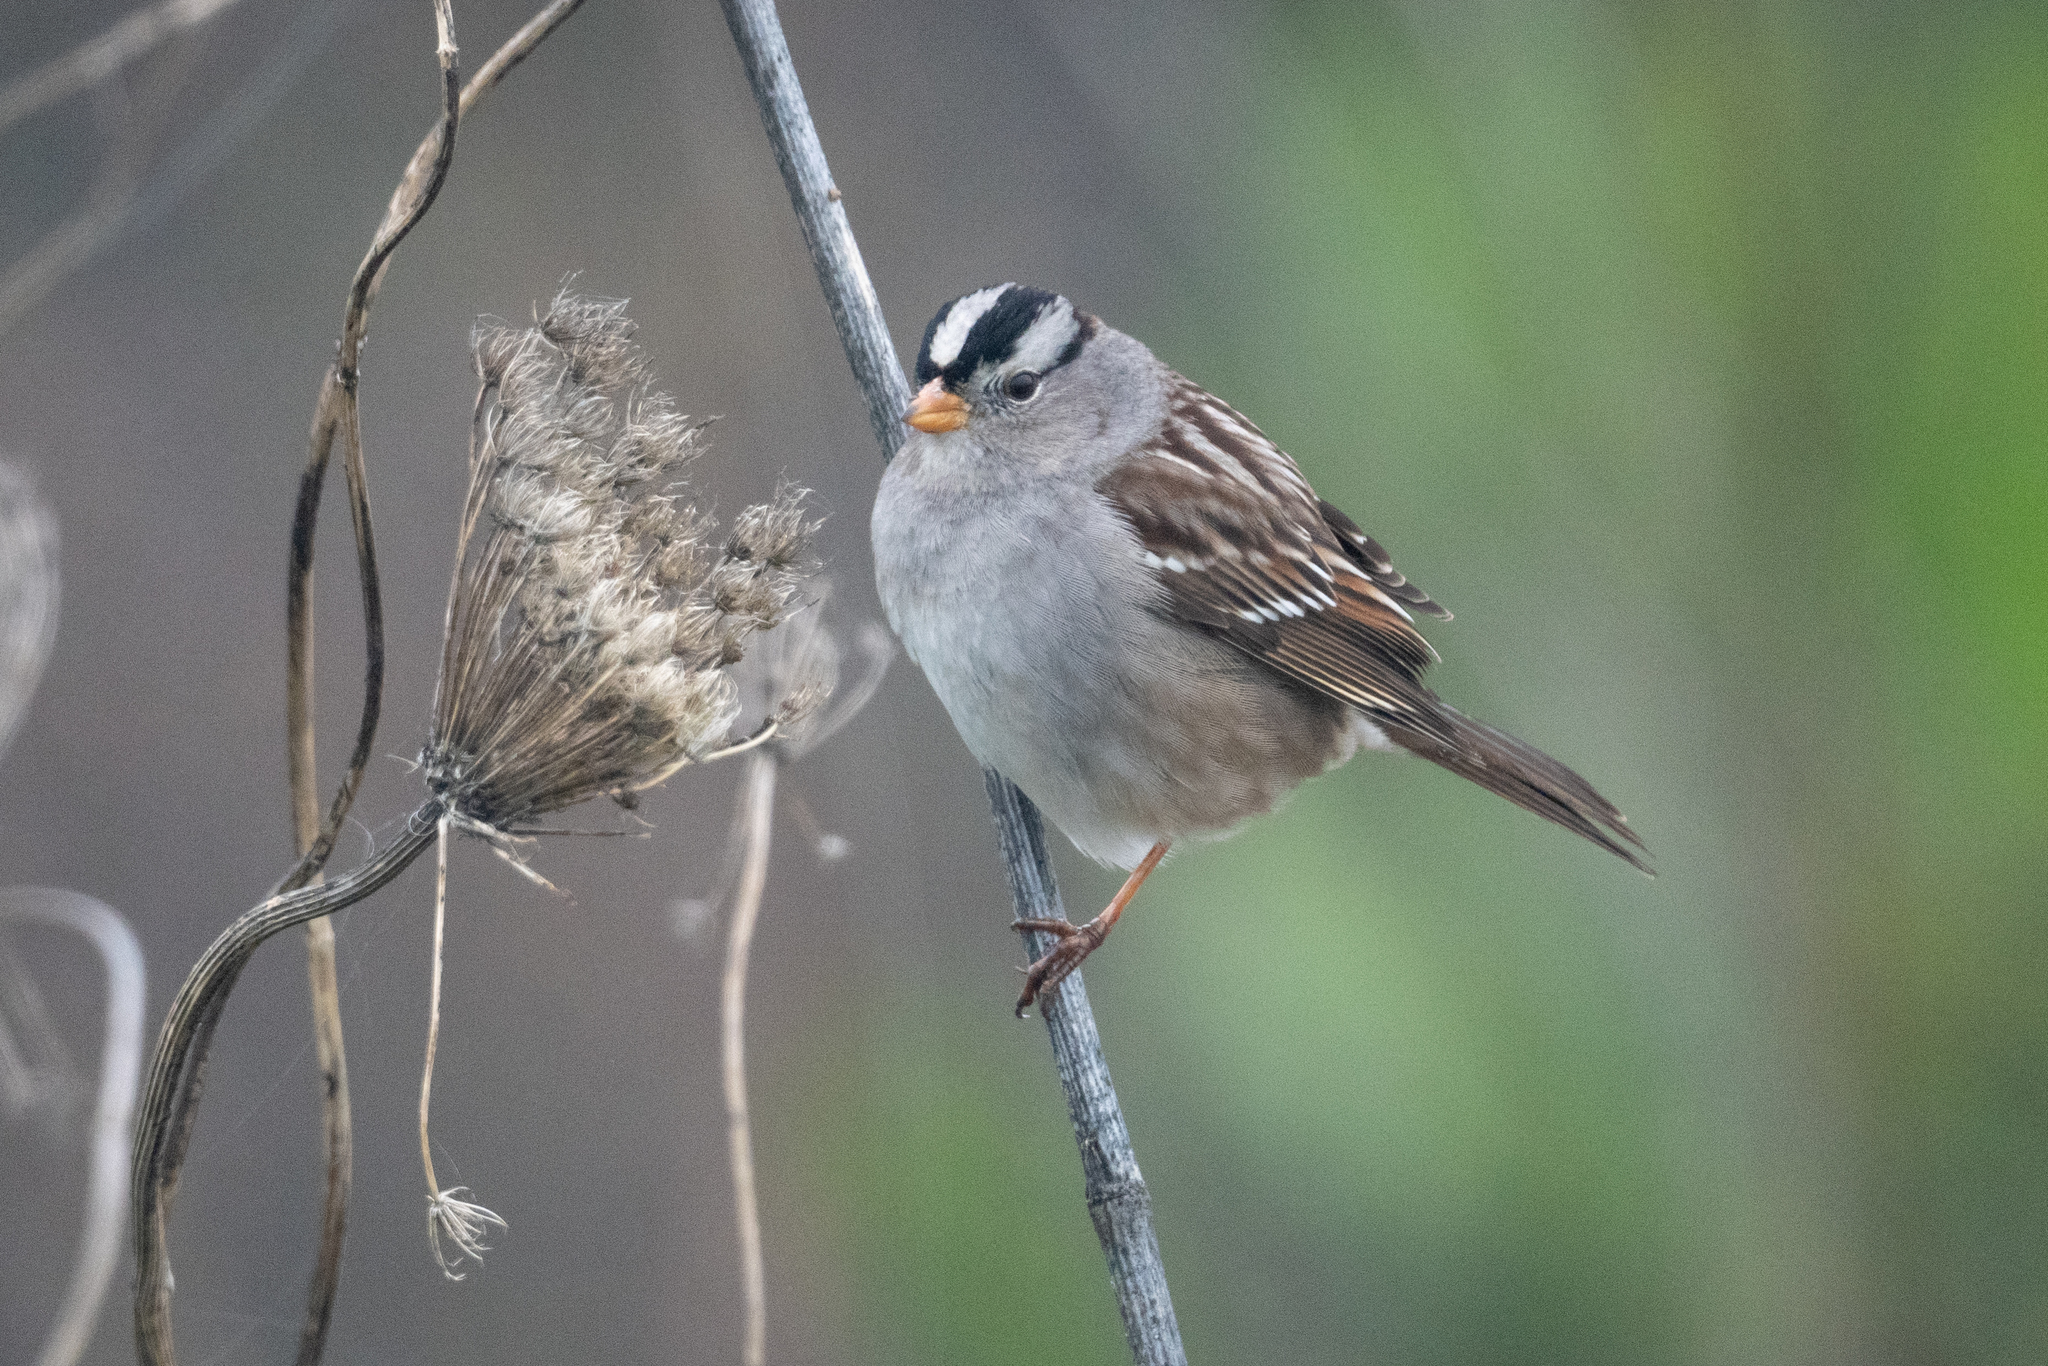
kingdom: Animalia
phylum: Chordata
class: Aves
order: Passeriformes
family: Passerellidae
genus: Zonotrichia
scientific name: Zonotrichia leucophrys
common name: White-crowned sparrow
